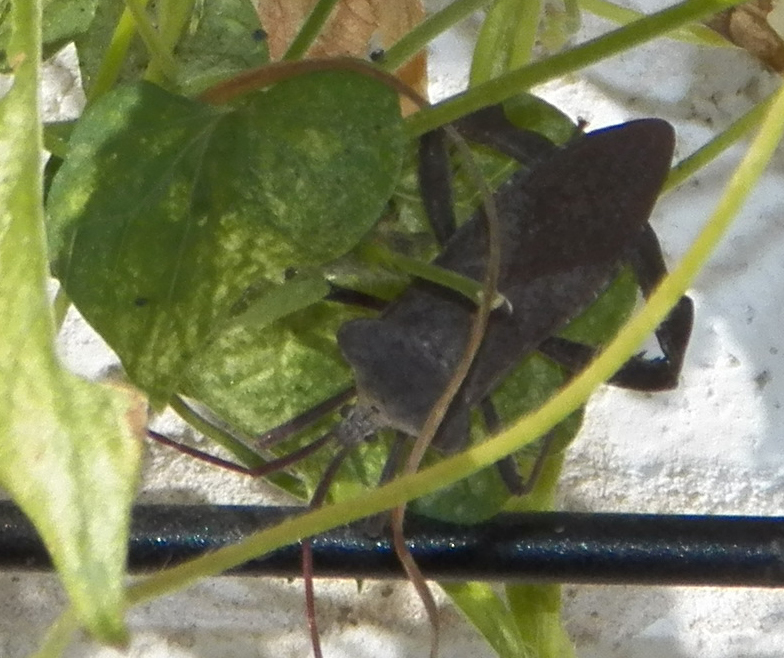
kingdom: Animalia
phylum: Arthropoda
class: Insecta
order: Hemiptera
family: Coreidae
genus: Acanthocephala
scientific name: Acanthocephala declivis
